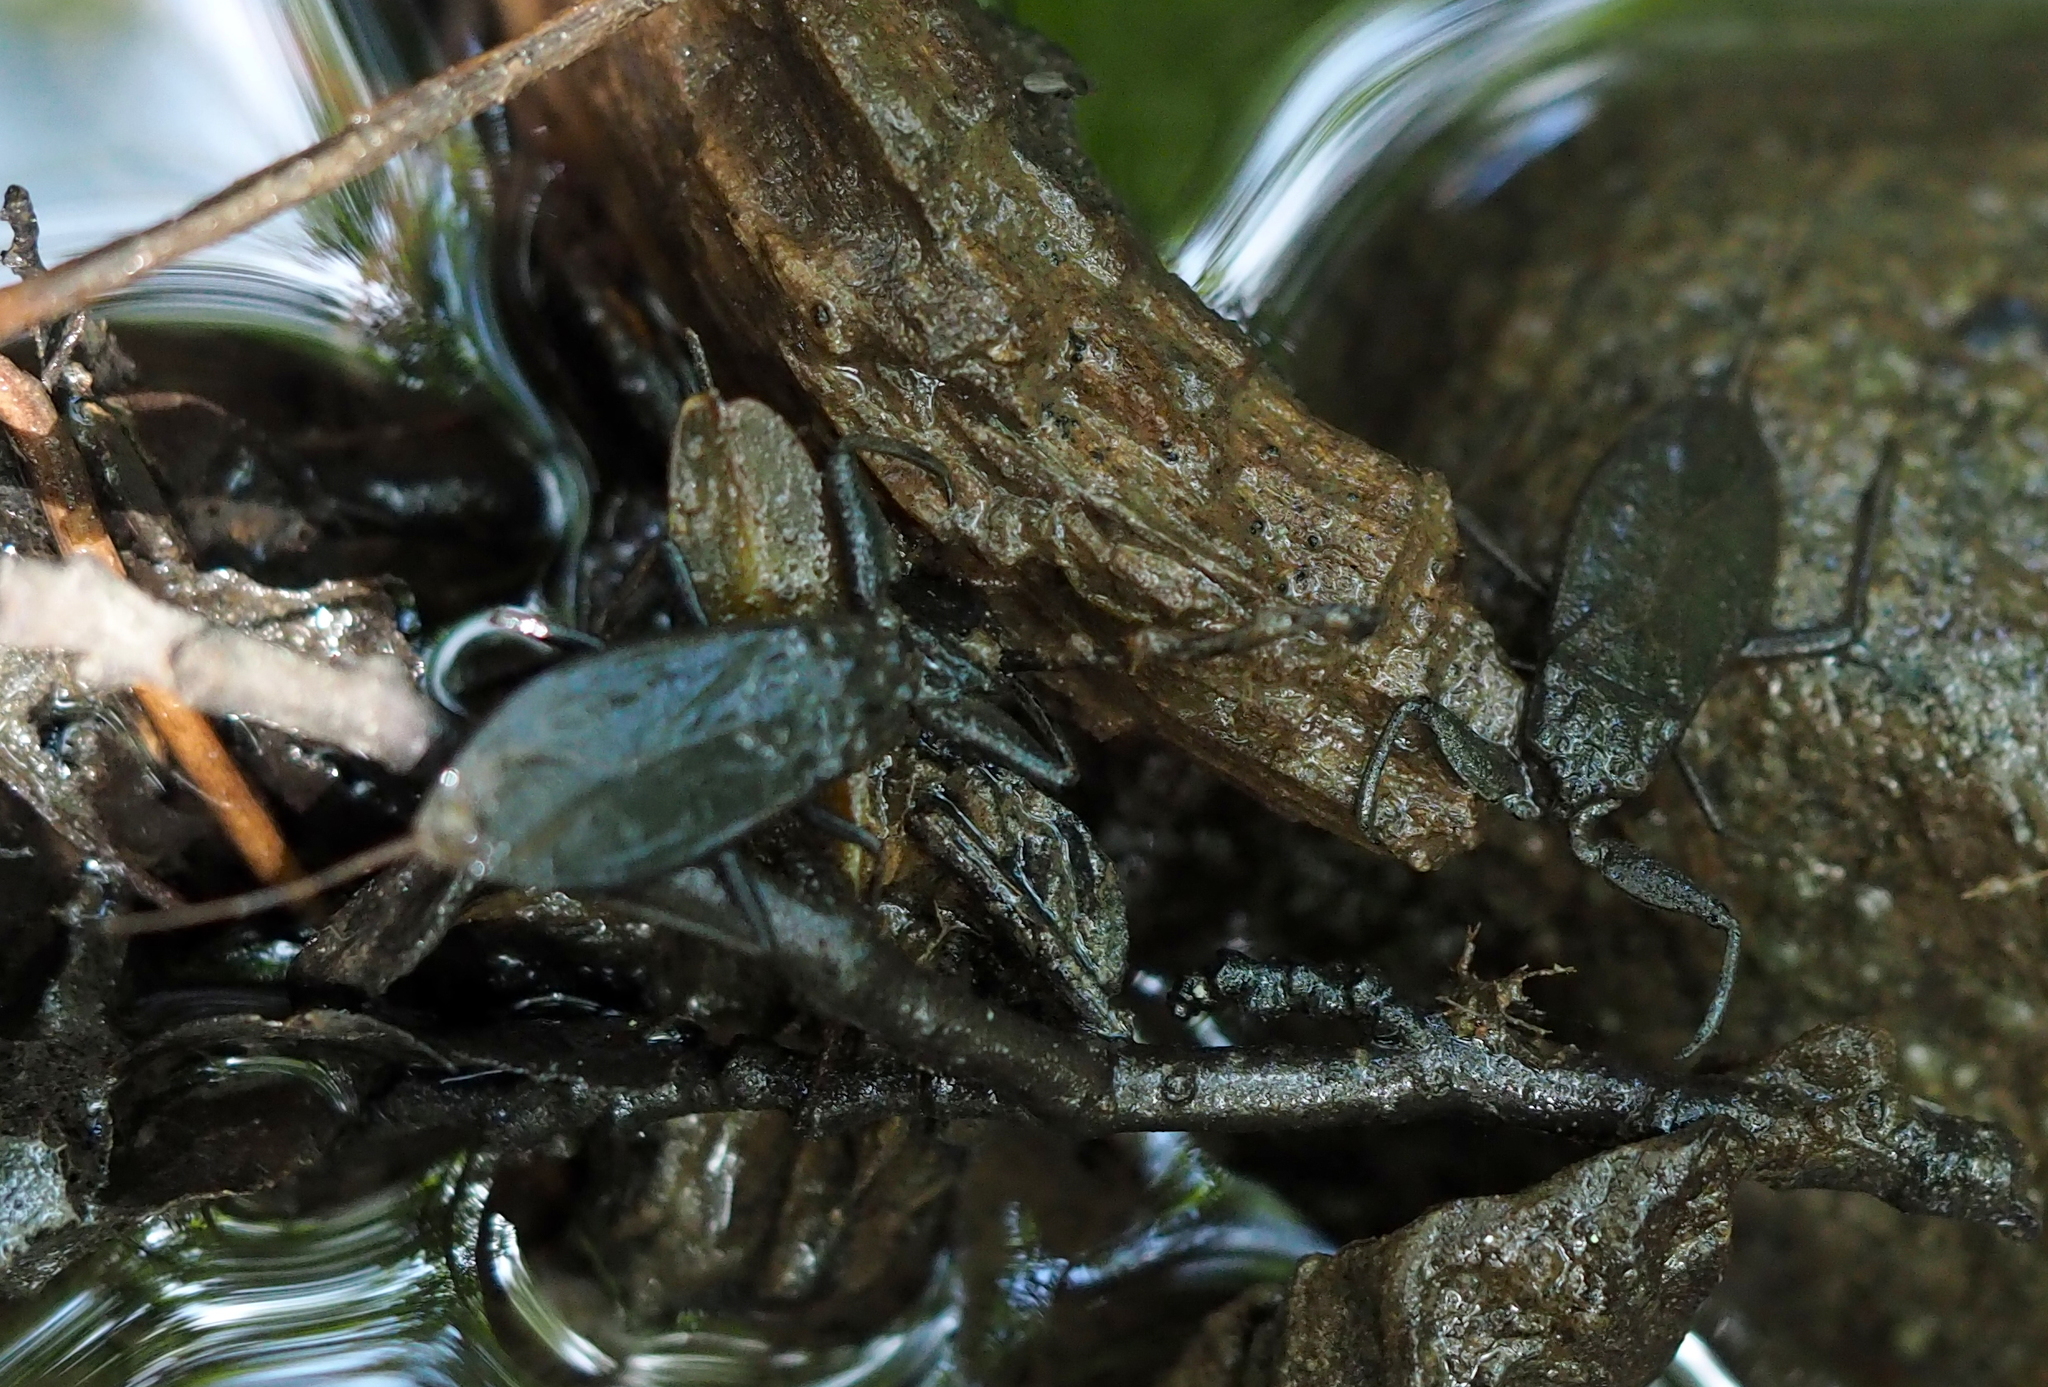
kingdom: Animalia
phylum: Arthropoda
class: Insecta
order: Hemiptera
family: Nepidae
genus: Nepa
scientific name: Nepa cinerea
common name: Water scorpion
